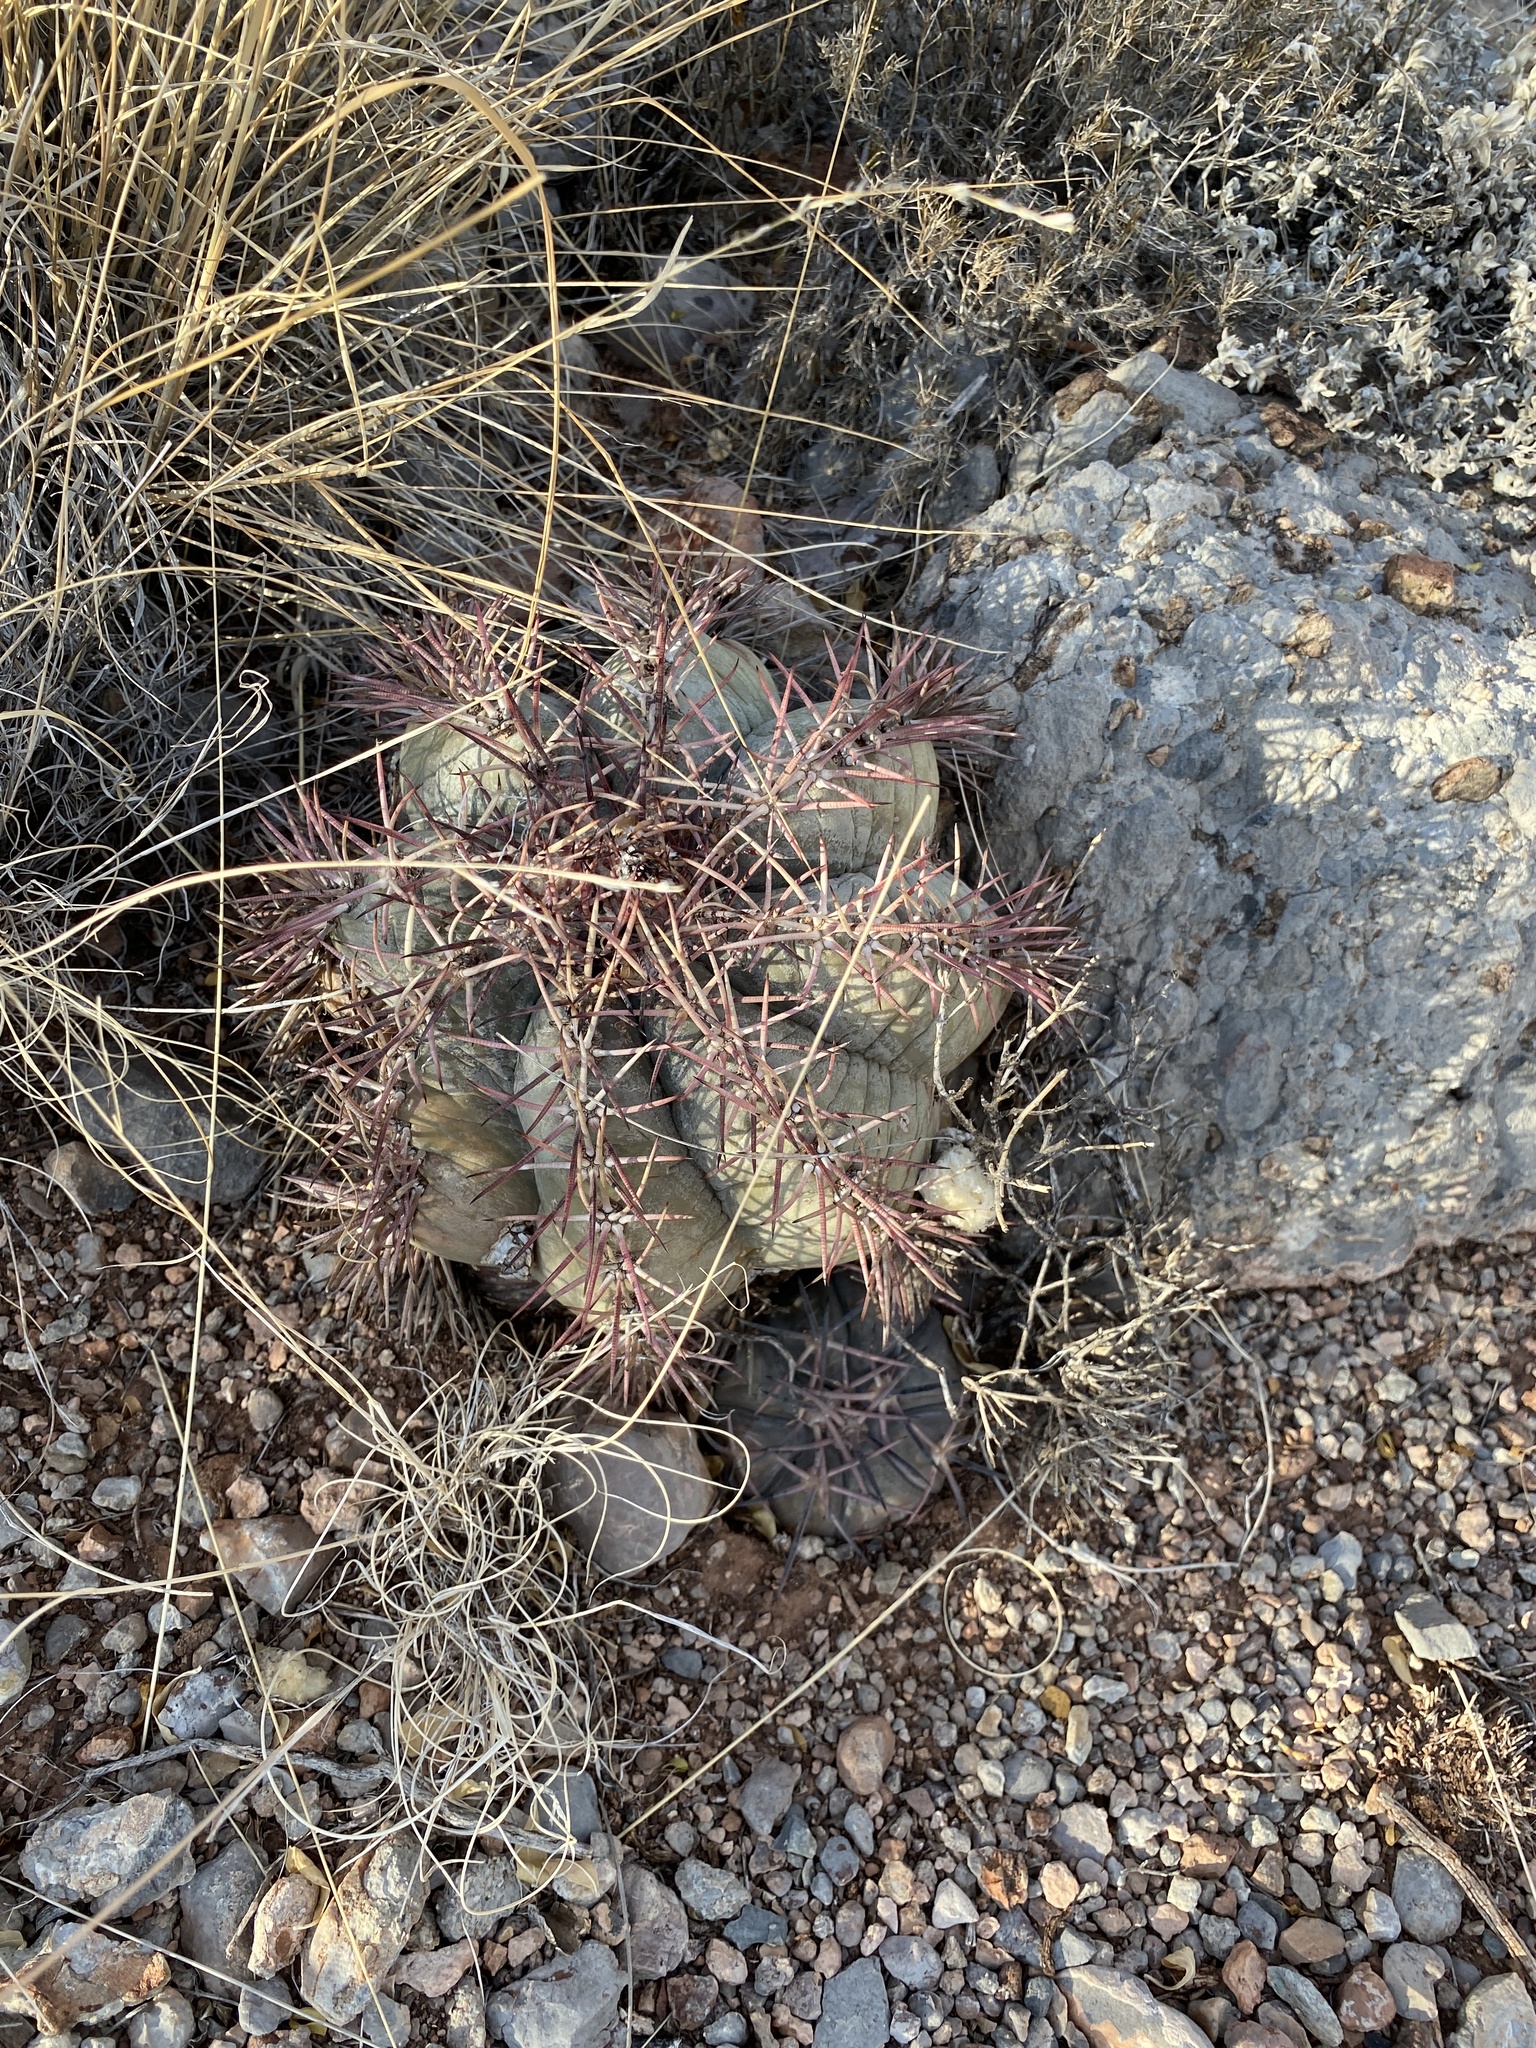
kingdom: Plantae
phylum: Tracheophyta
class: Magnoliopsida
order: Caryophyllales
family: Cactaceae
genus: Echinocactus
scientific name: Echinocactus horizonthalonius
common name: Devilshead
